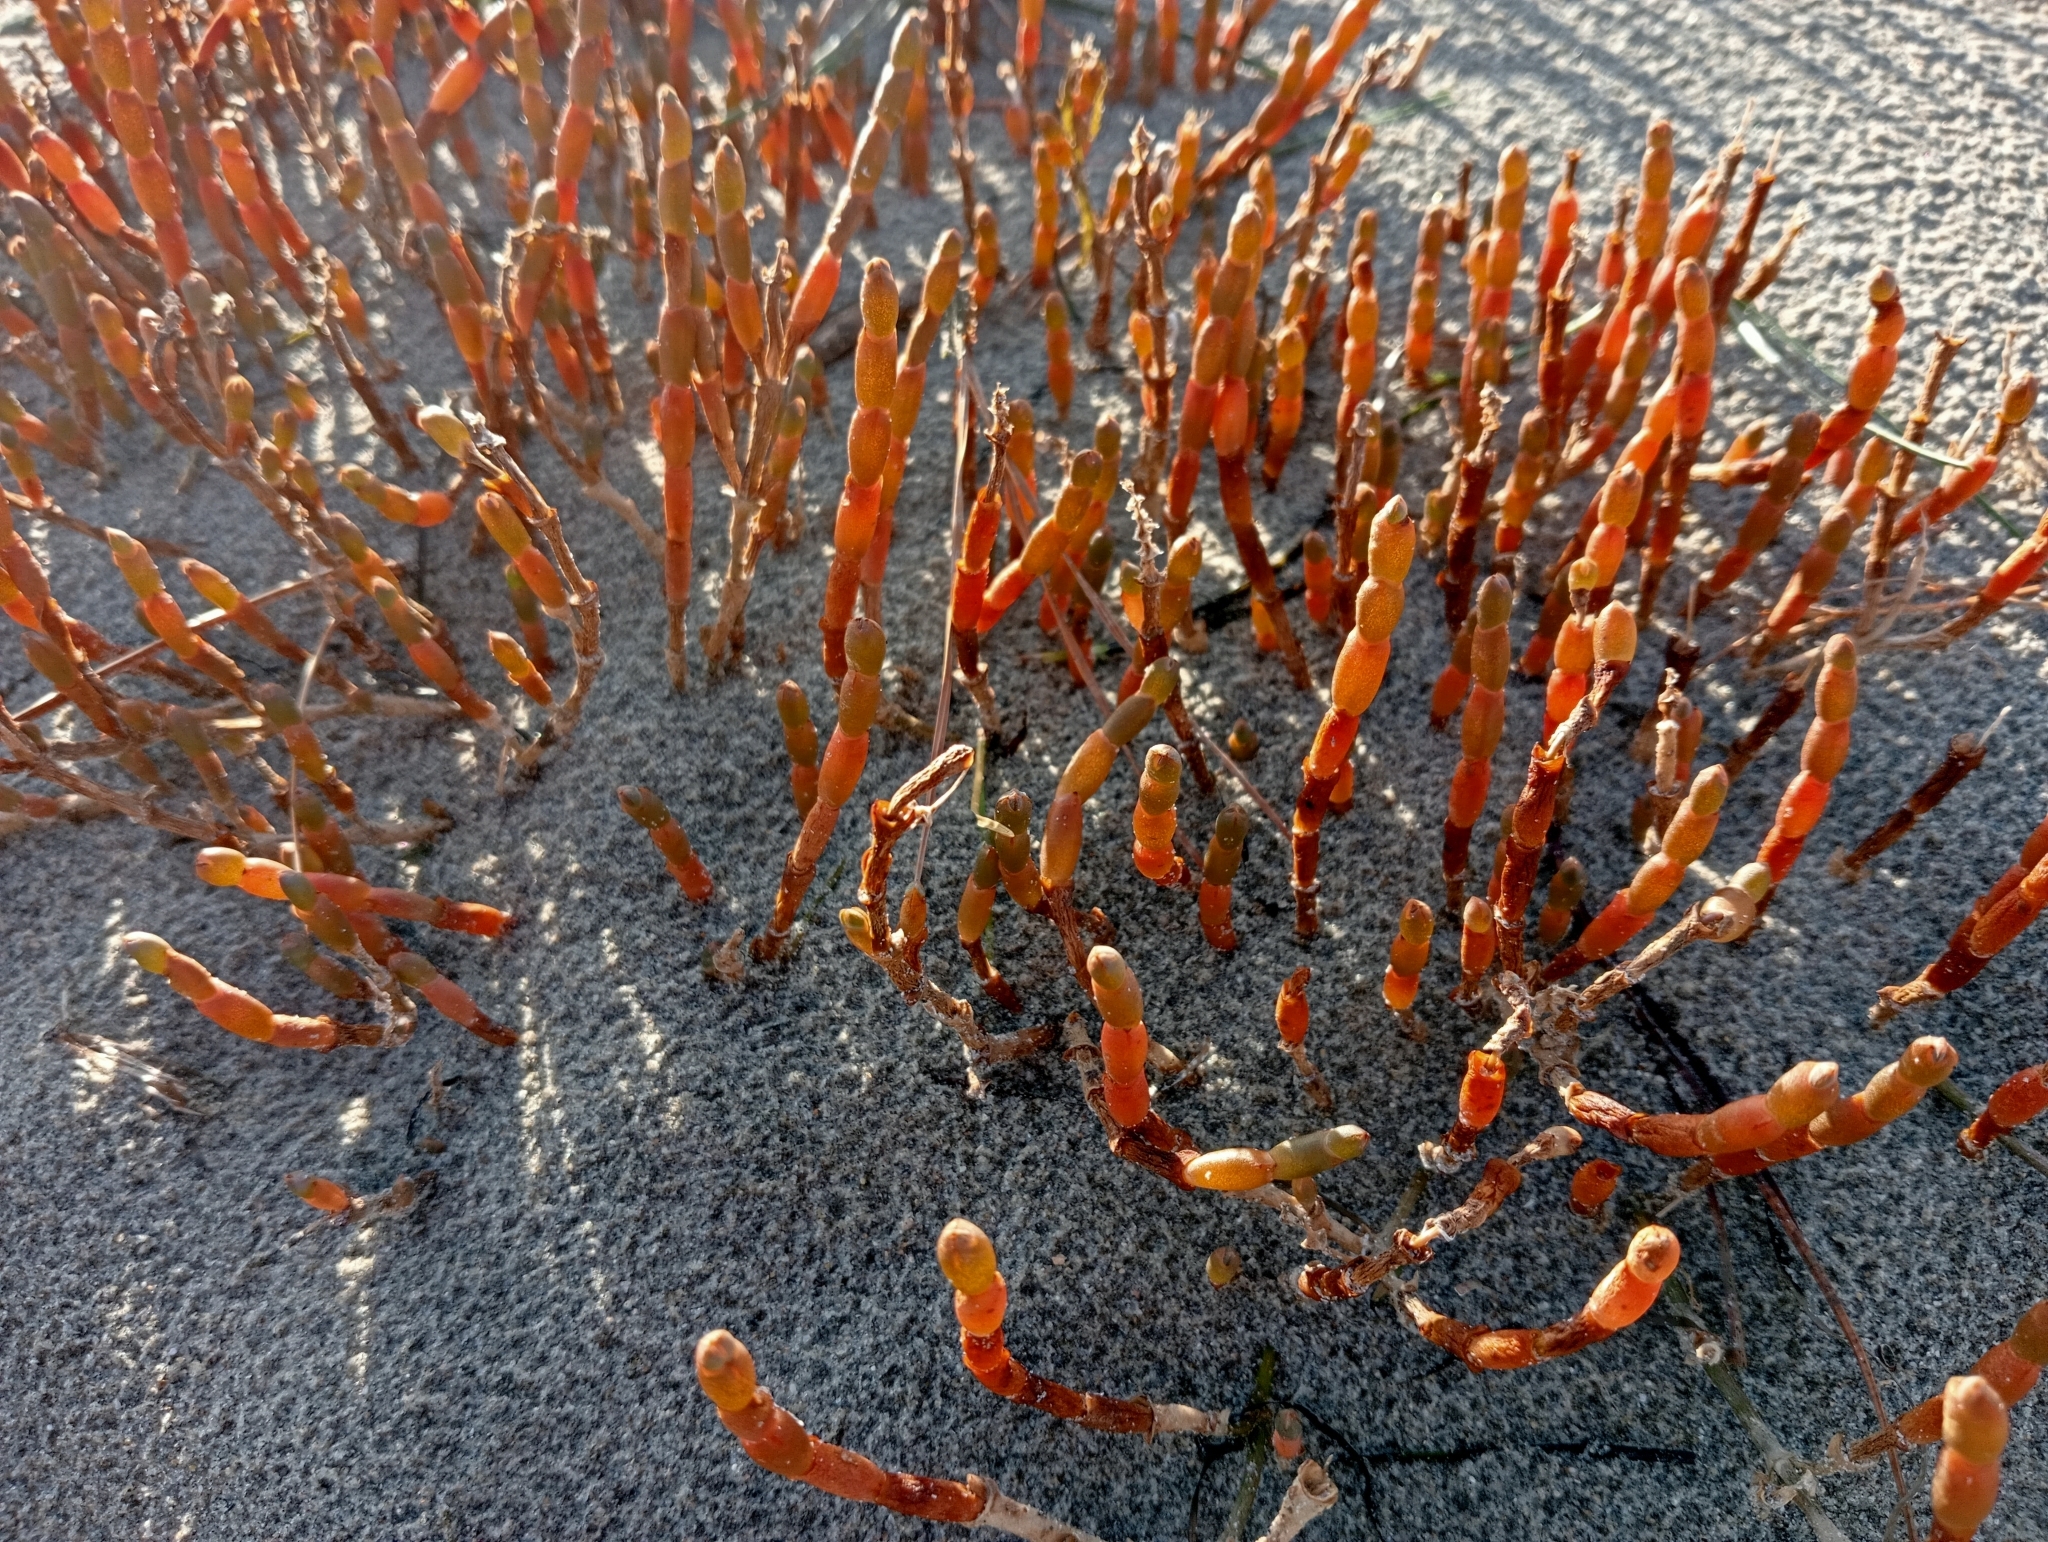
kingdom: Plantae
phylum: Tracheophyta
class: Magnoliopsida
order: Caryophyllales
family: Amaranthaceae
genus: Salicornia
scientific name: Salicornia quinqueflora
